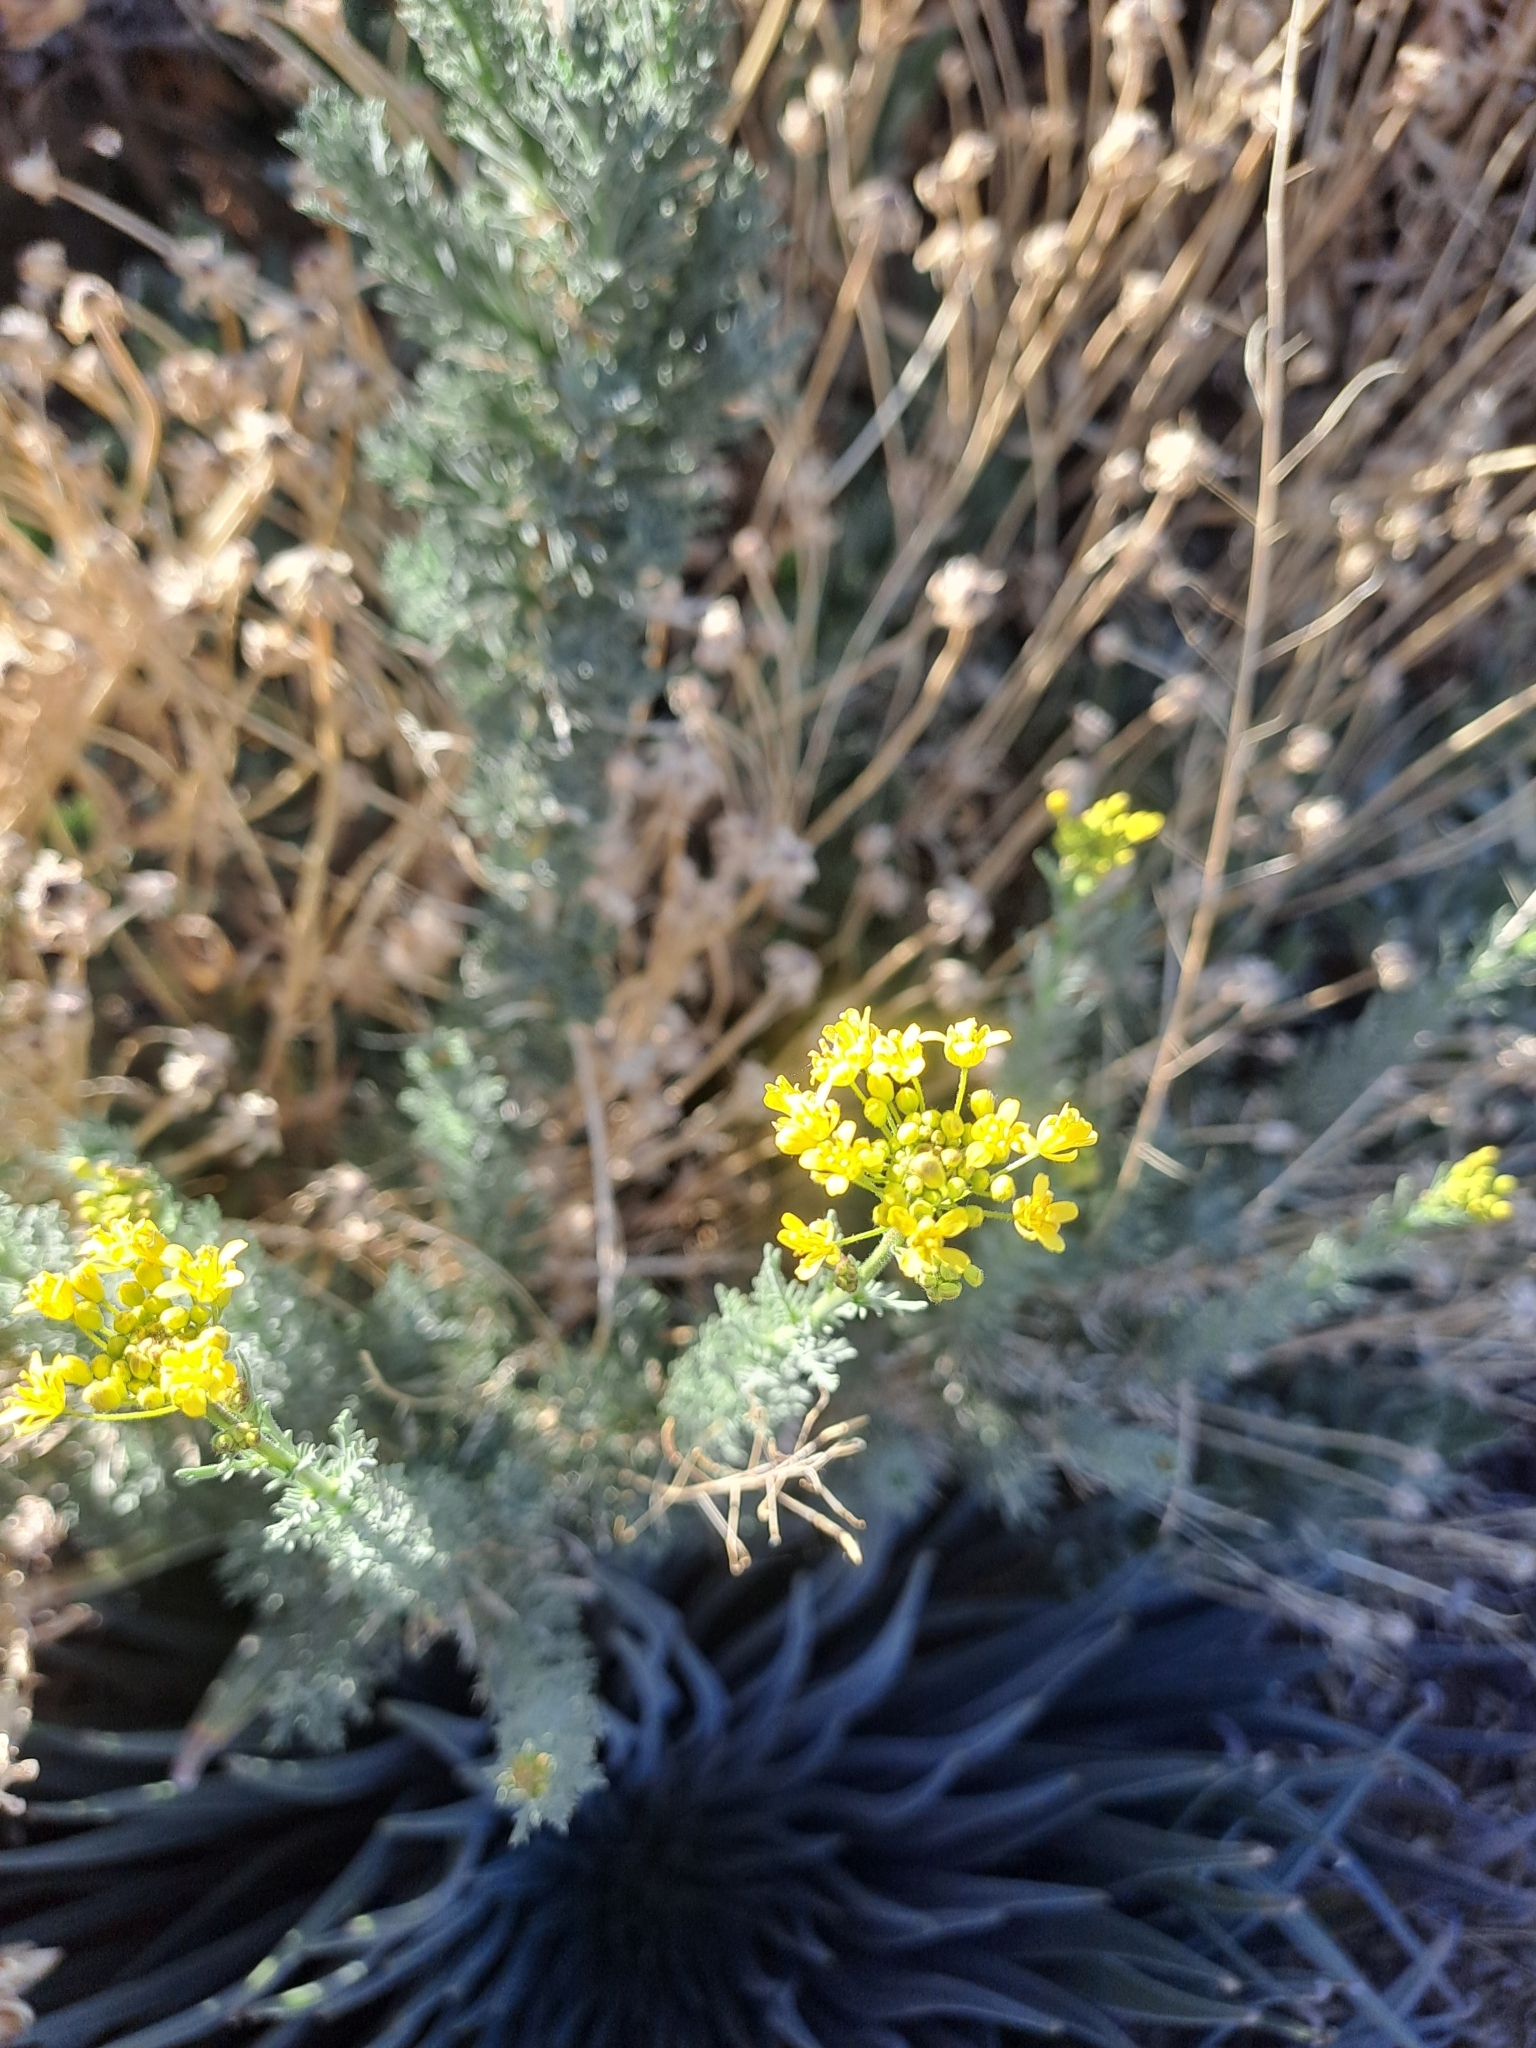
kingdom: Plantae
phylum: Tracheophyta
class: Magnoliopsida
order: Brassicales
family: Brassicaceae
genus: Descurainia
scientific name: Descurainia bourgaeana
